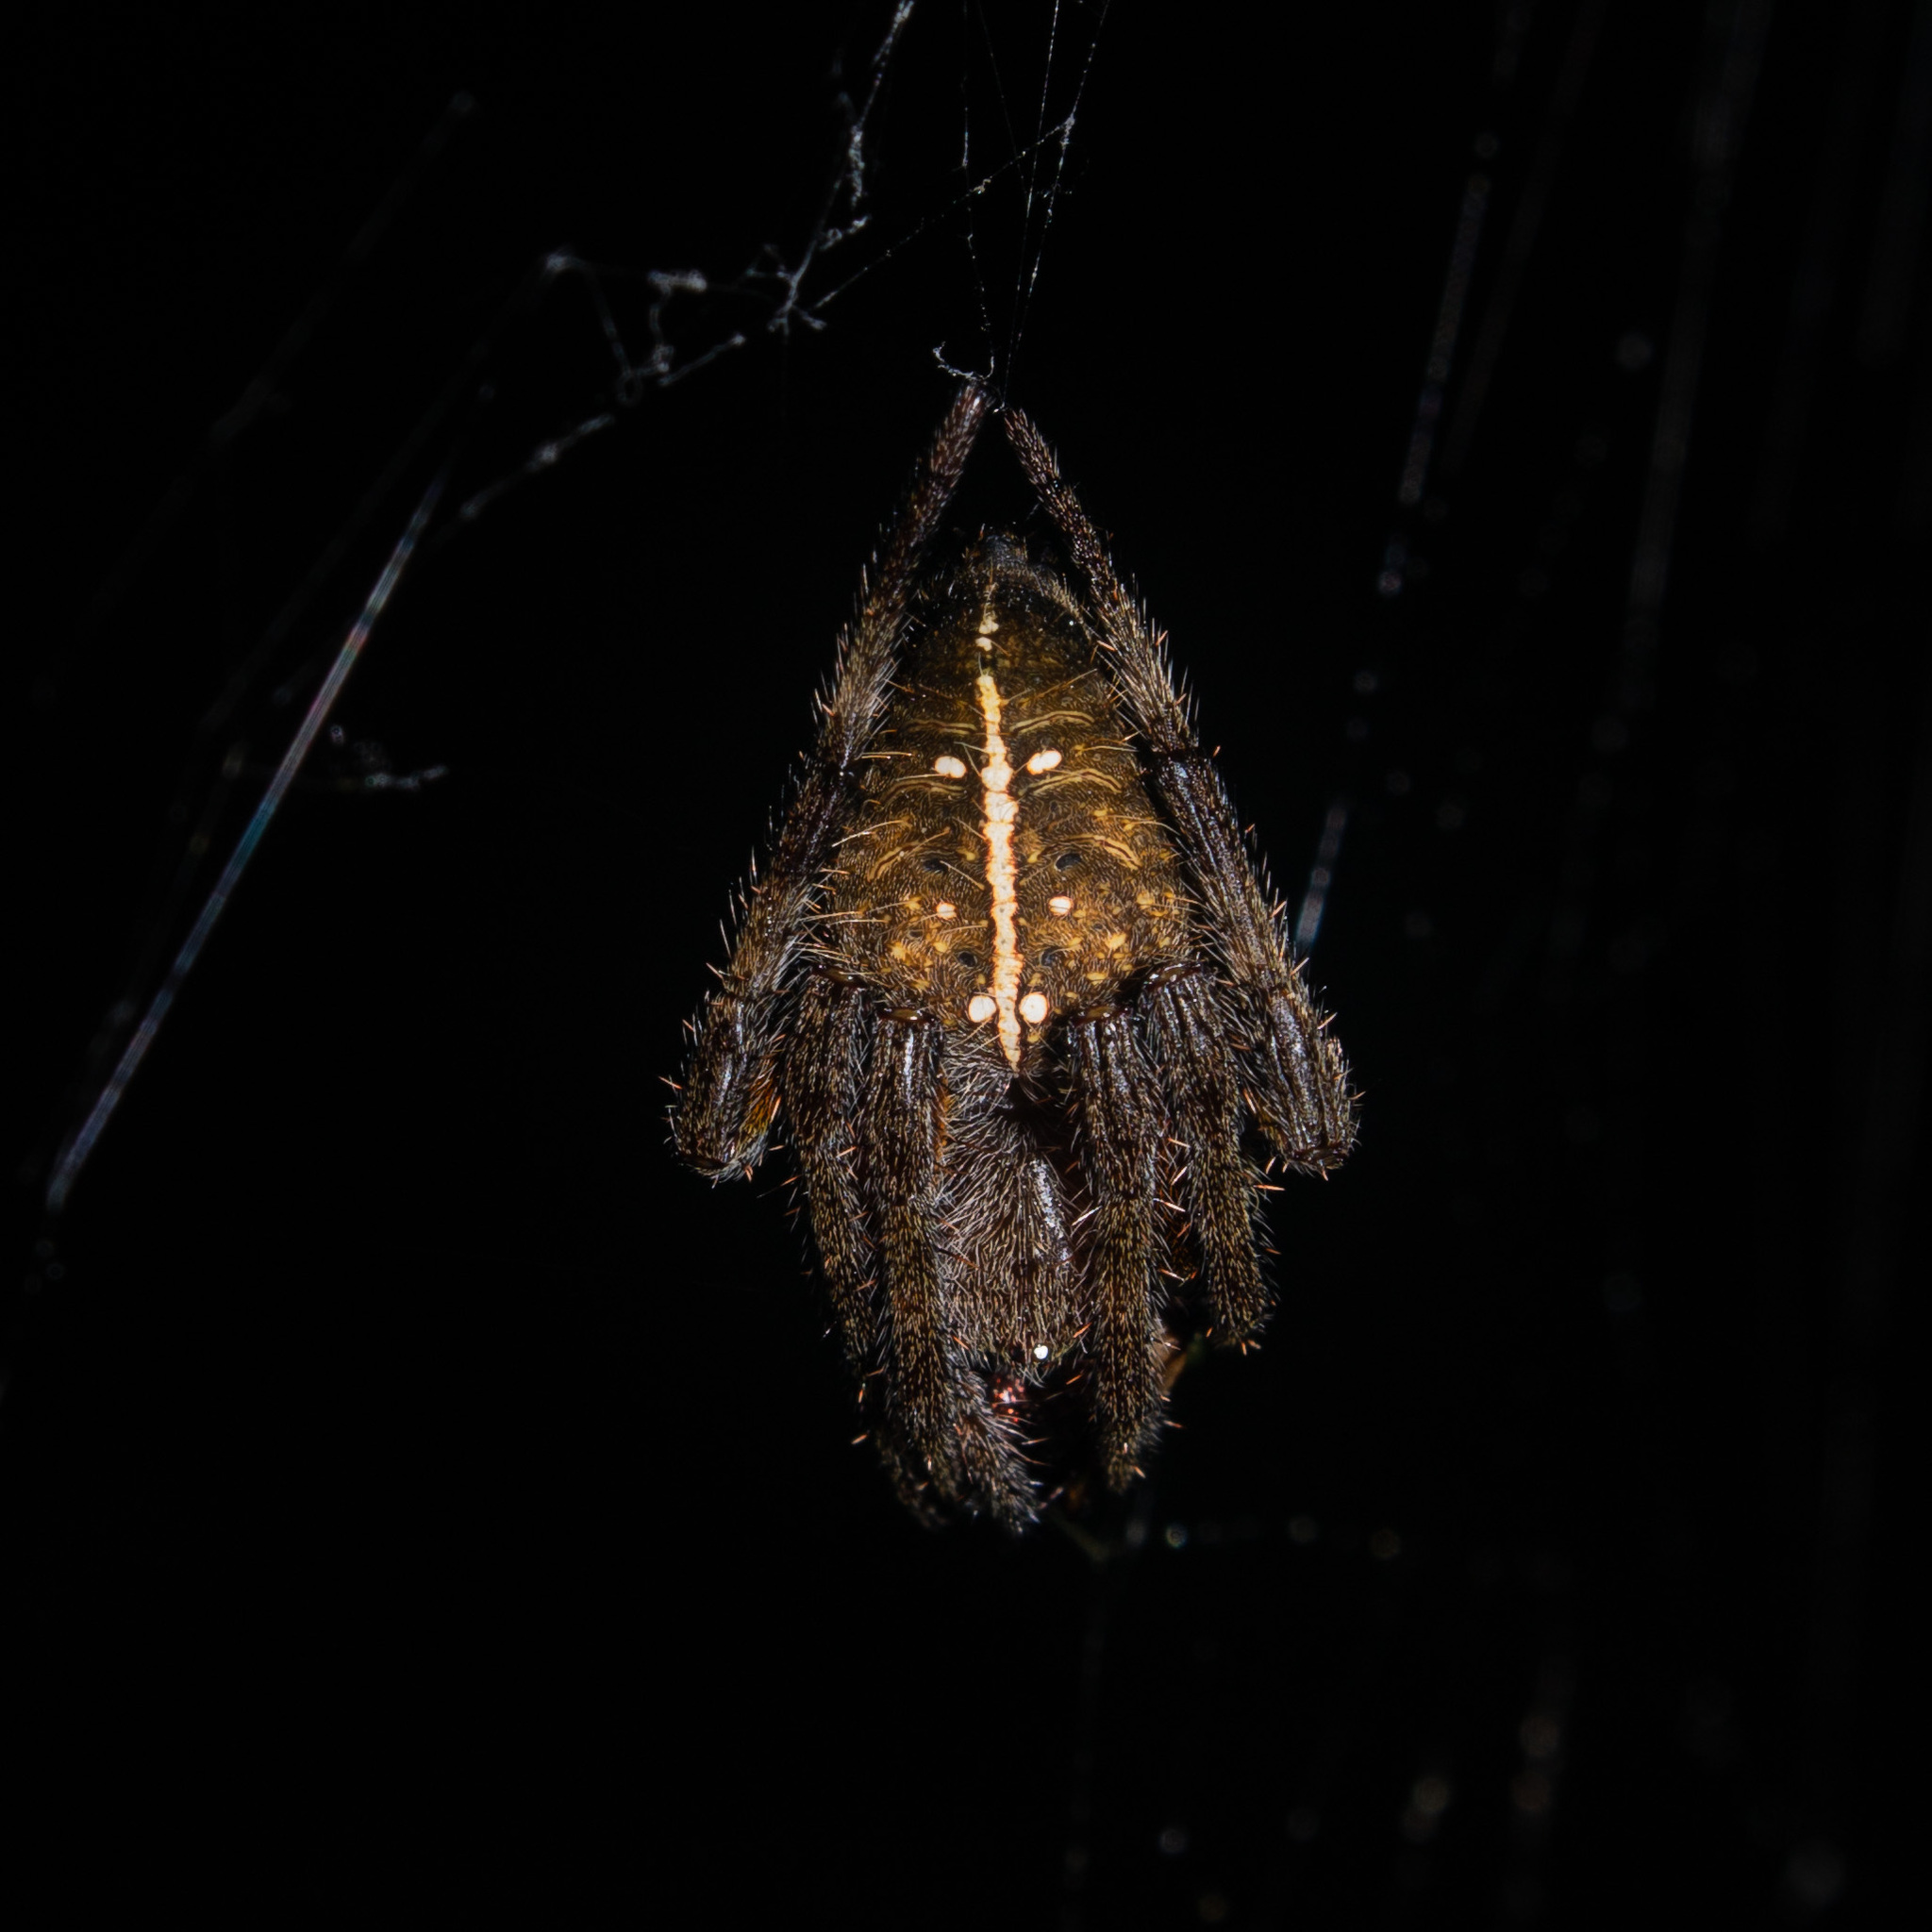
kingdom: Animalia
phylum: Arthropoda
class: Arachnida
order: Araneae
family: Araneidae
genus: Eriophora
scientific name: Eriophora ravilla
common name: Orb weavers
